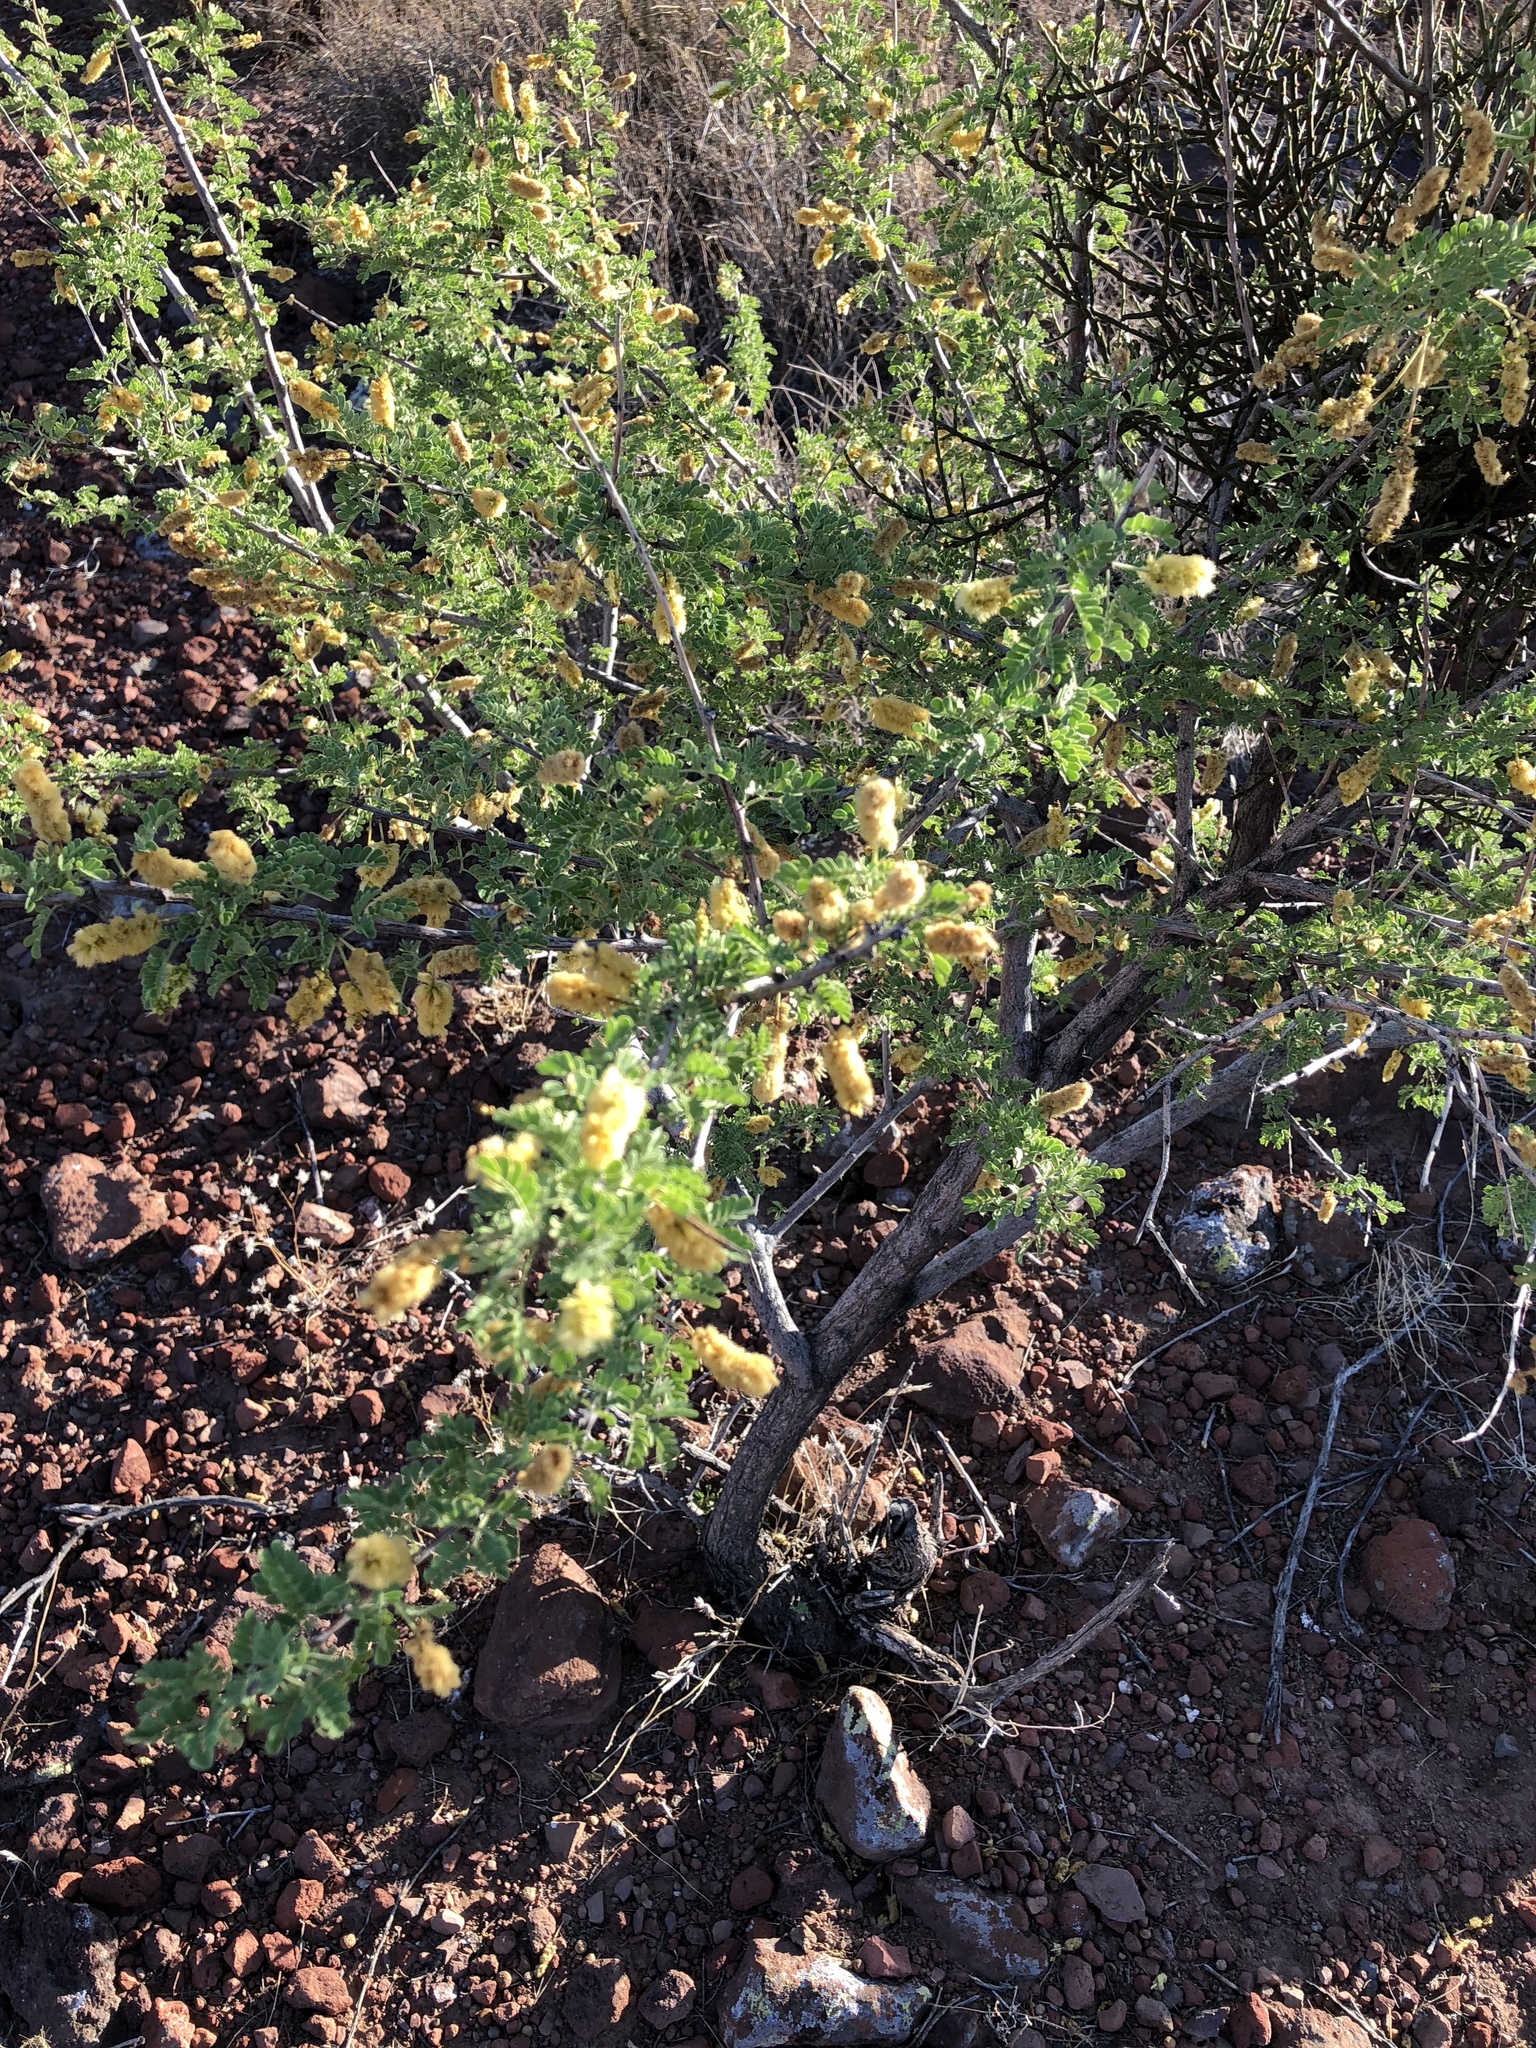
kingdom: Plantae
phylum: Tracheophyta
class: Magnoliopsida
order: Fabales
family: Fabaceae
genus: Senegalia
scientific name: Senegalia greggii
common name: Texas-mimosa
